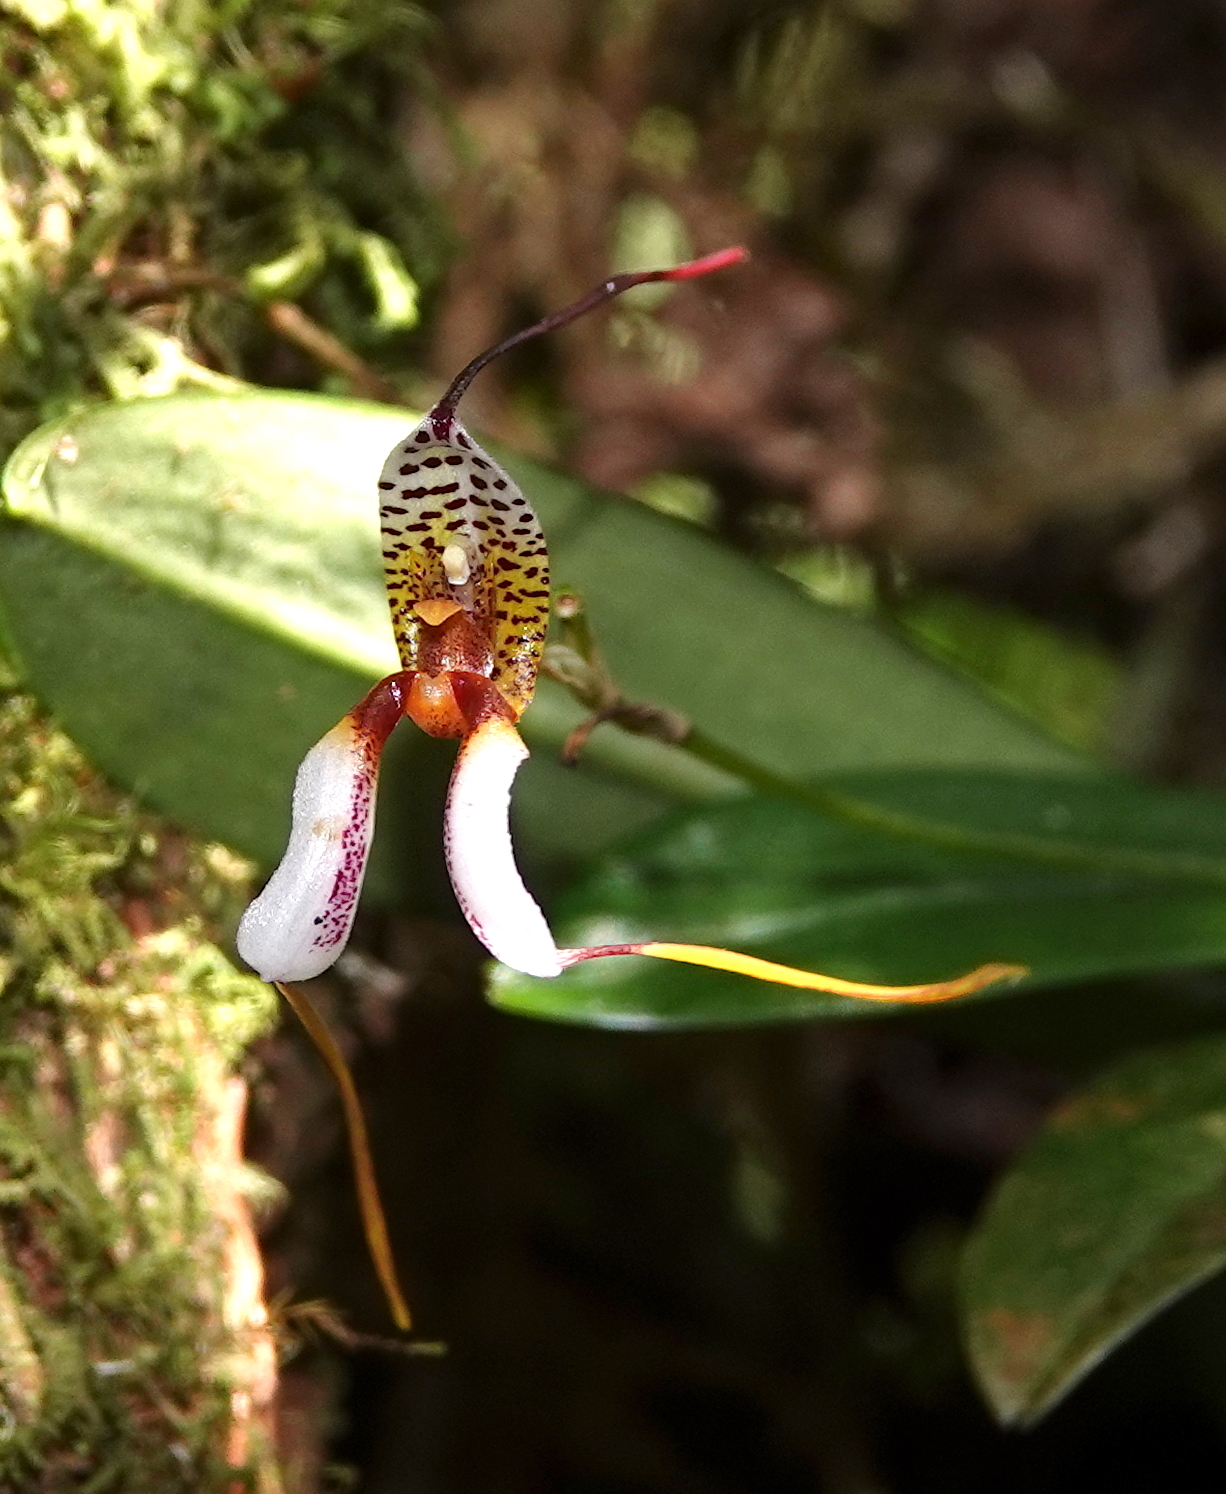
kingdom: Plantae
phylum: Tracheophyta
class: Liliopsida
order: Asparagales
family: Orchidaceae
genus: Masdevallia
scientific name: Masdevallia hortensis
